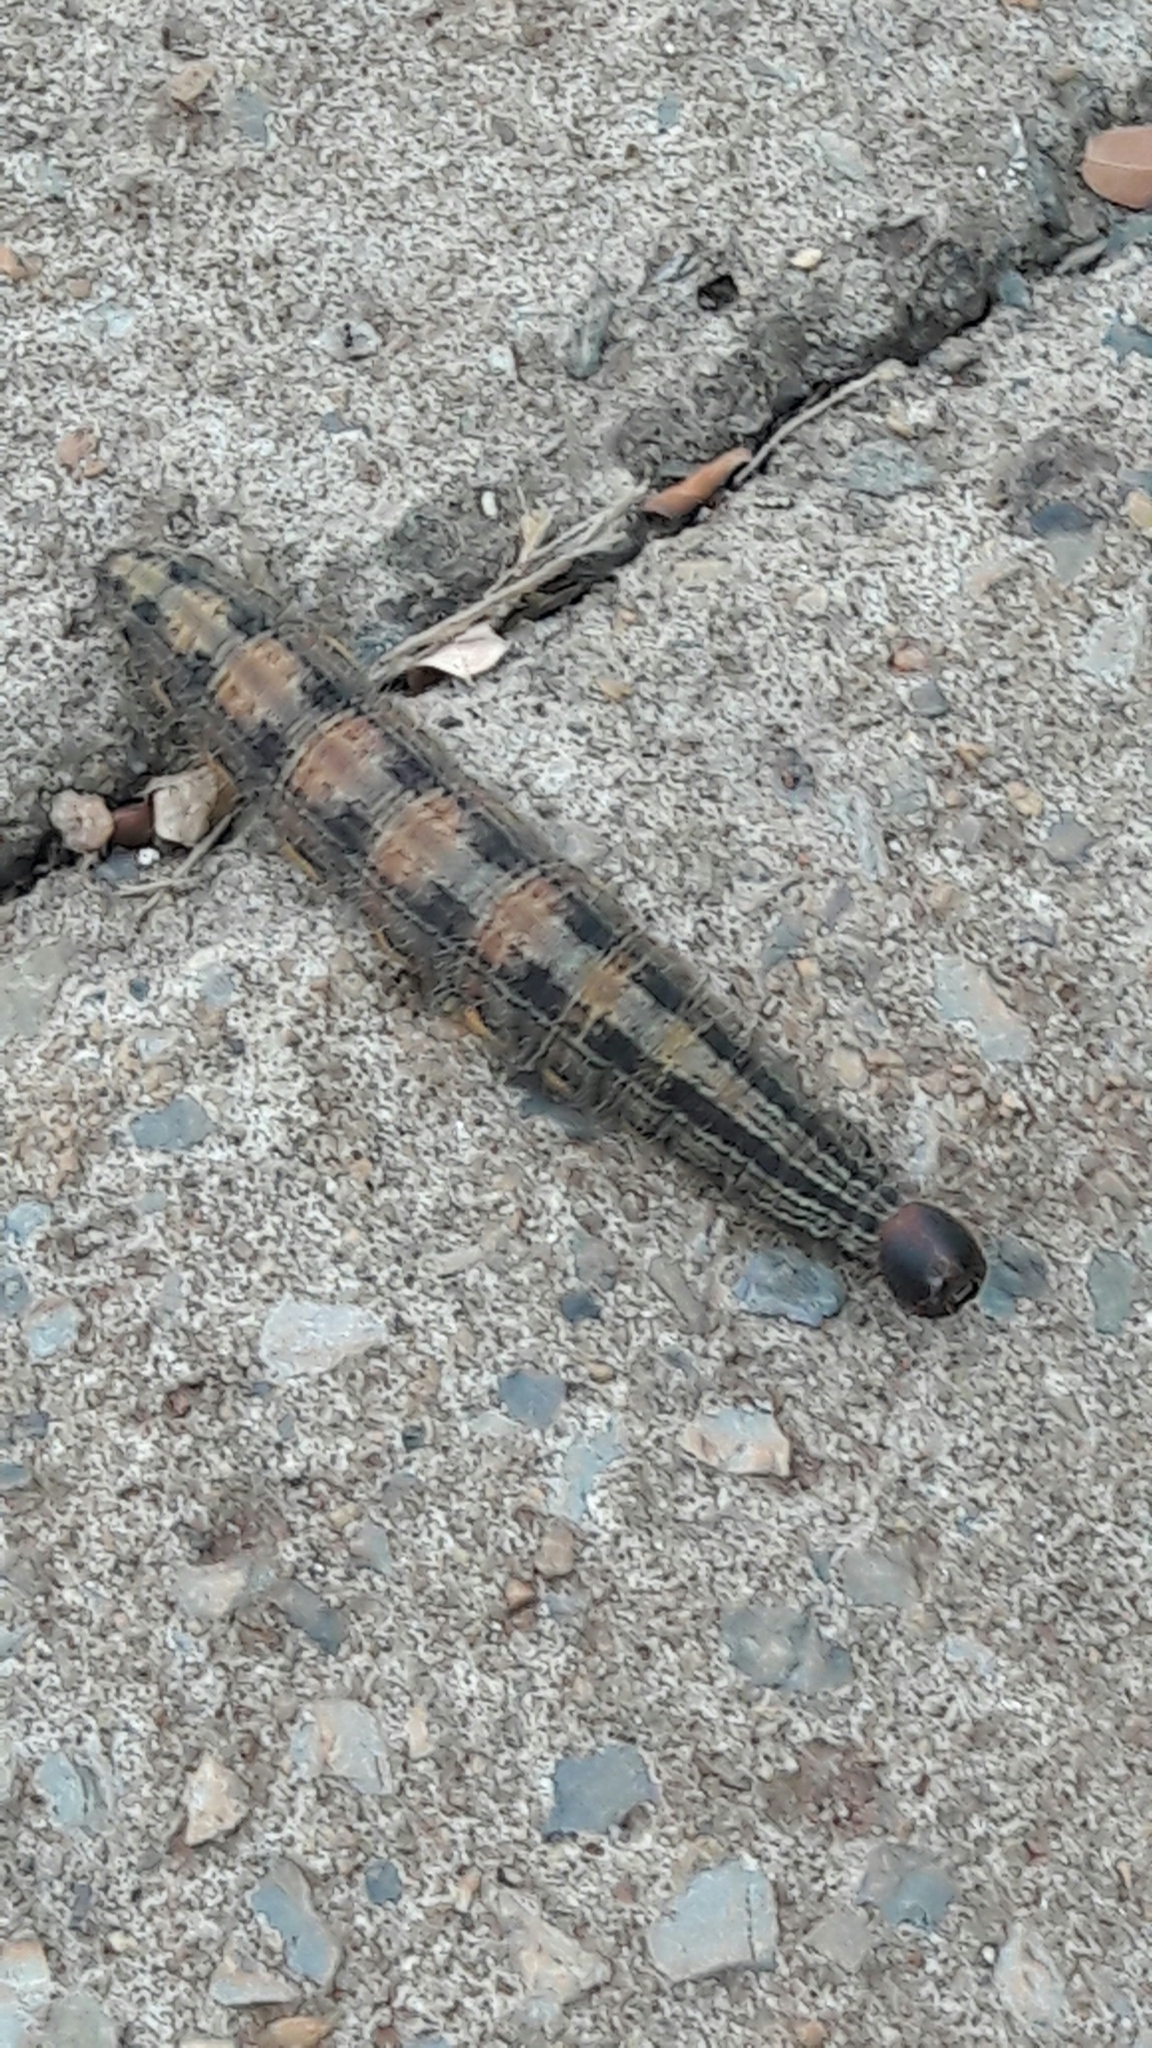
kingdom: Animalia
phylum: Arthropoda
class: Insecta
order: Lepidoptera
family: Nymphalidae
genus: Brassolis
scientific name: Brassolis sophorae
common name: Coconut caterpillar
